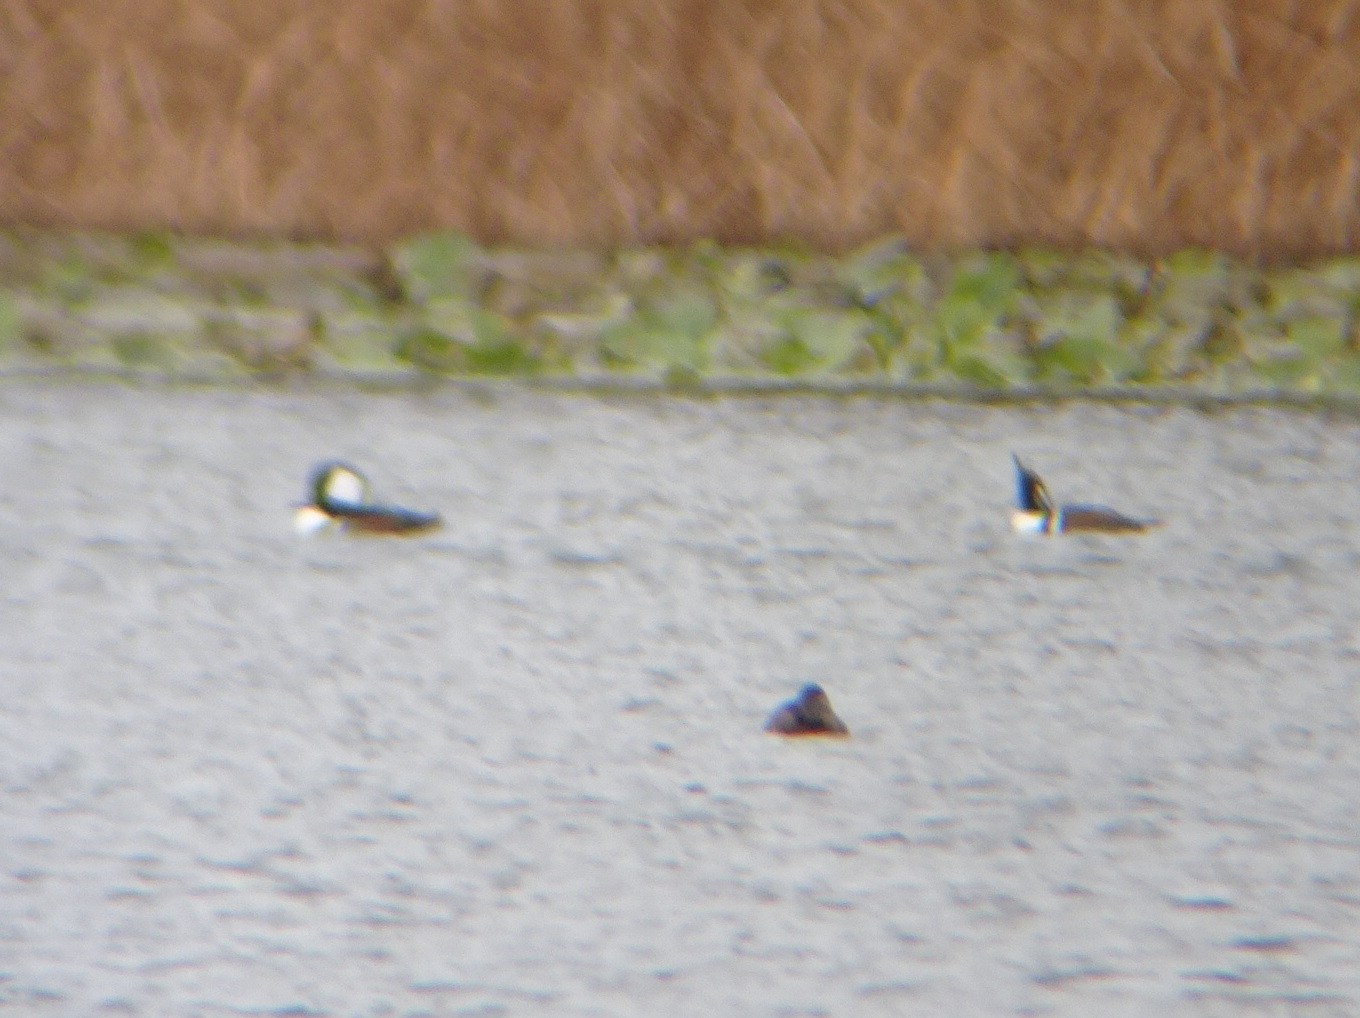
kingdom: Animalia
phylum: Chordata
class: Aves
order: Anseriformes
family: Anatidae
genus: Lophodytes
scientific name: Lophodytes cucullatus
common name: Hooded merganser
